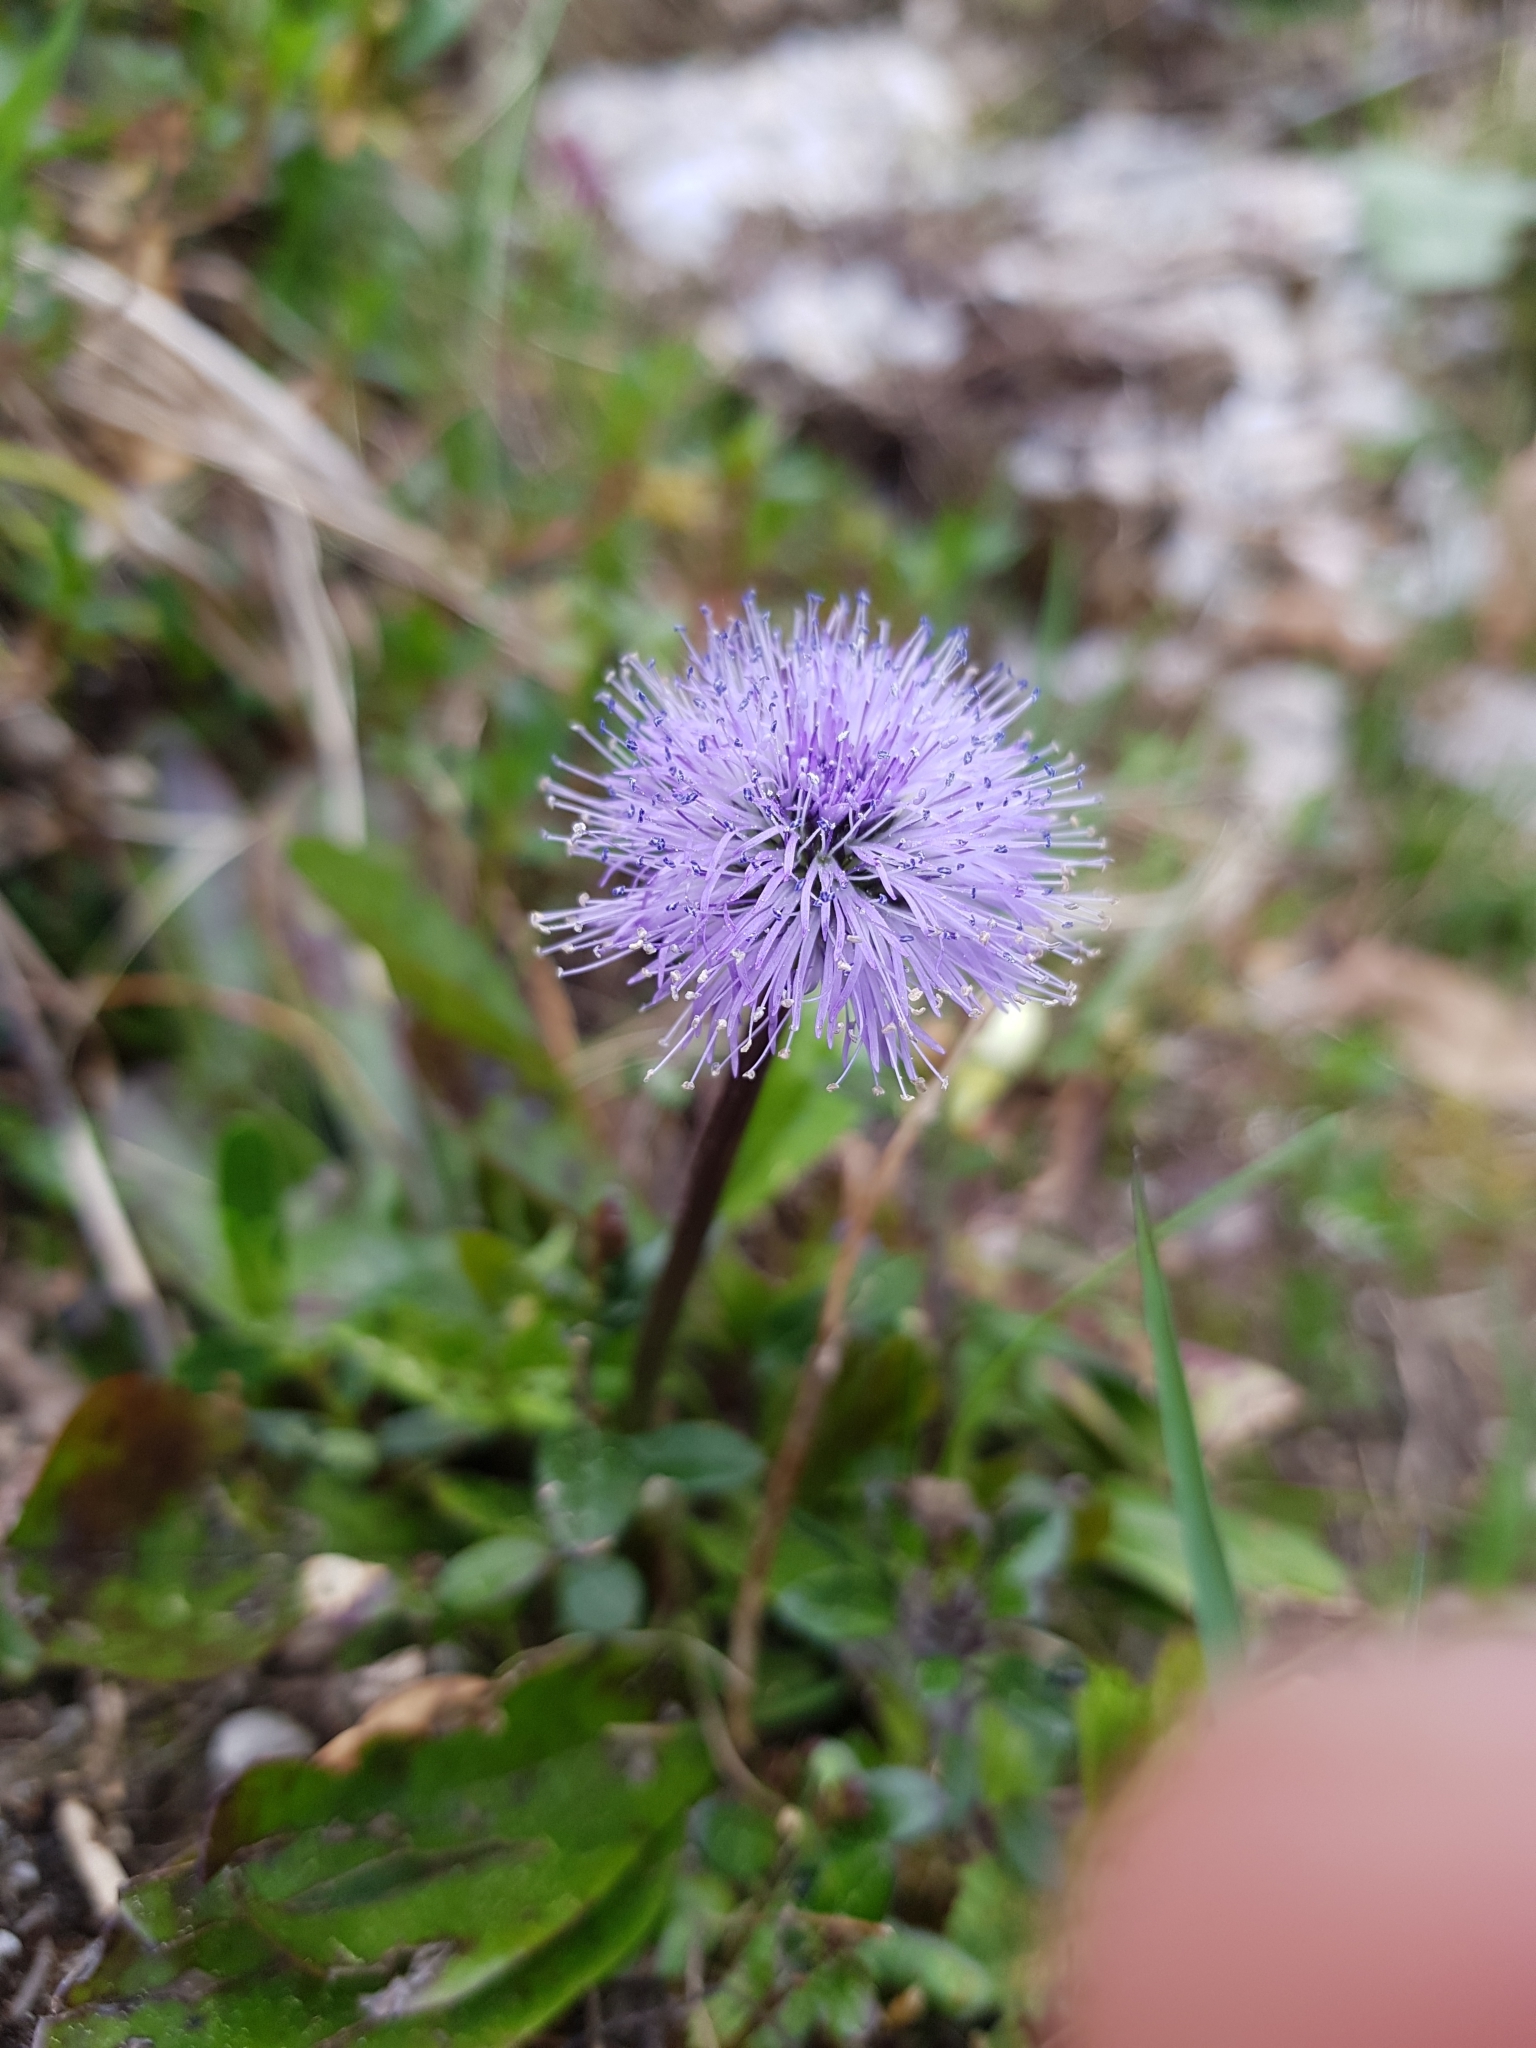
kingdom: Plantae
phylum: Tracheophyta
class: Magnoliopsida
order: Lamiales
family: Plantaginaceae
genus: Globularia
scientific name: Globularia nudicaulis
